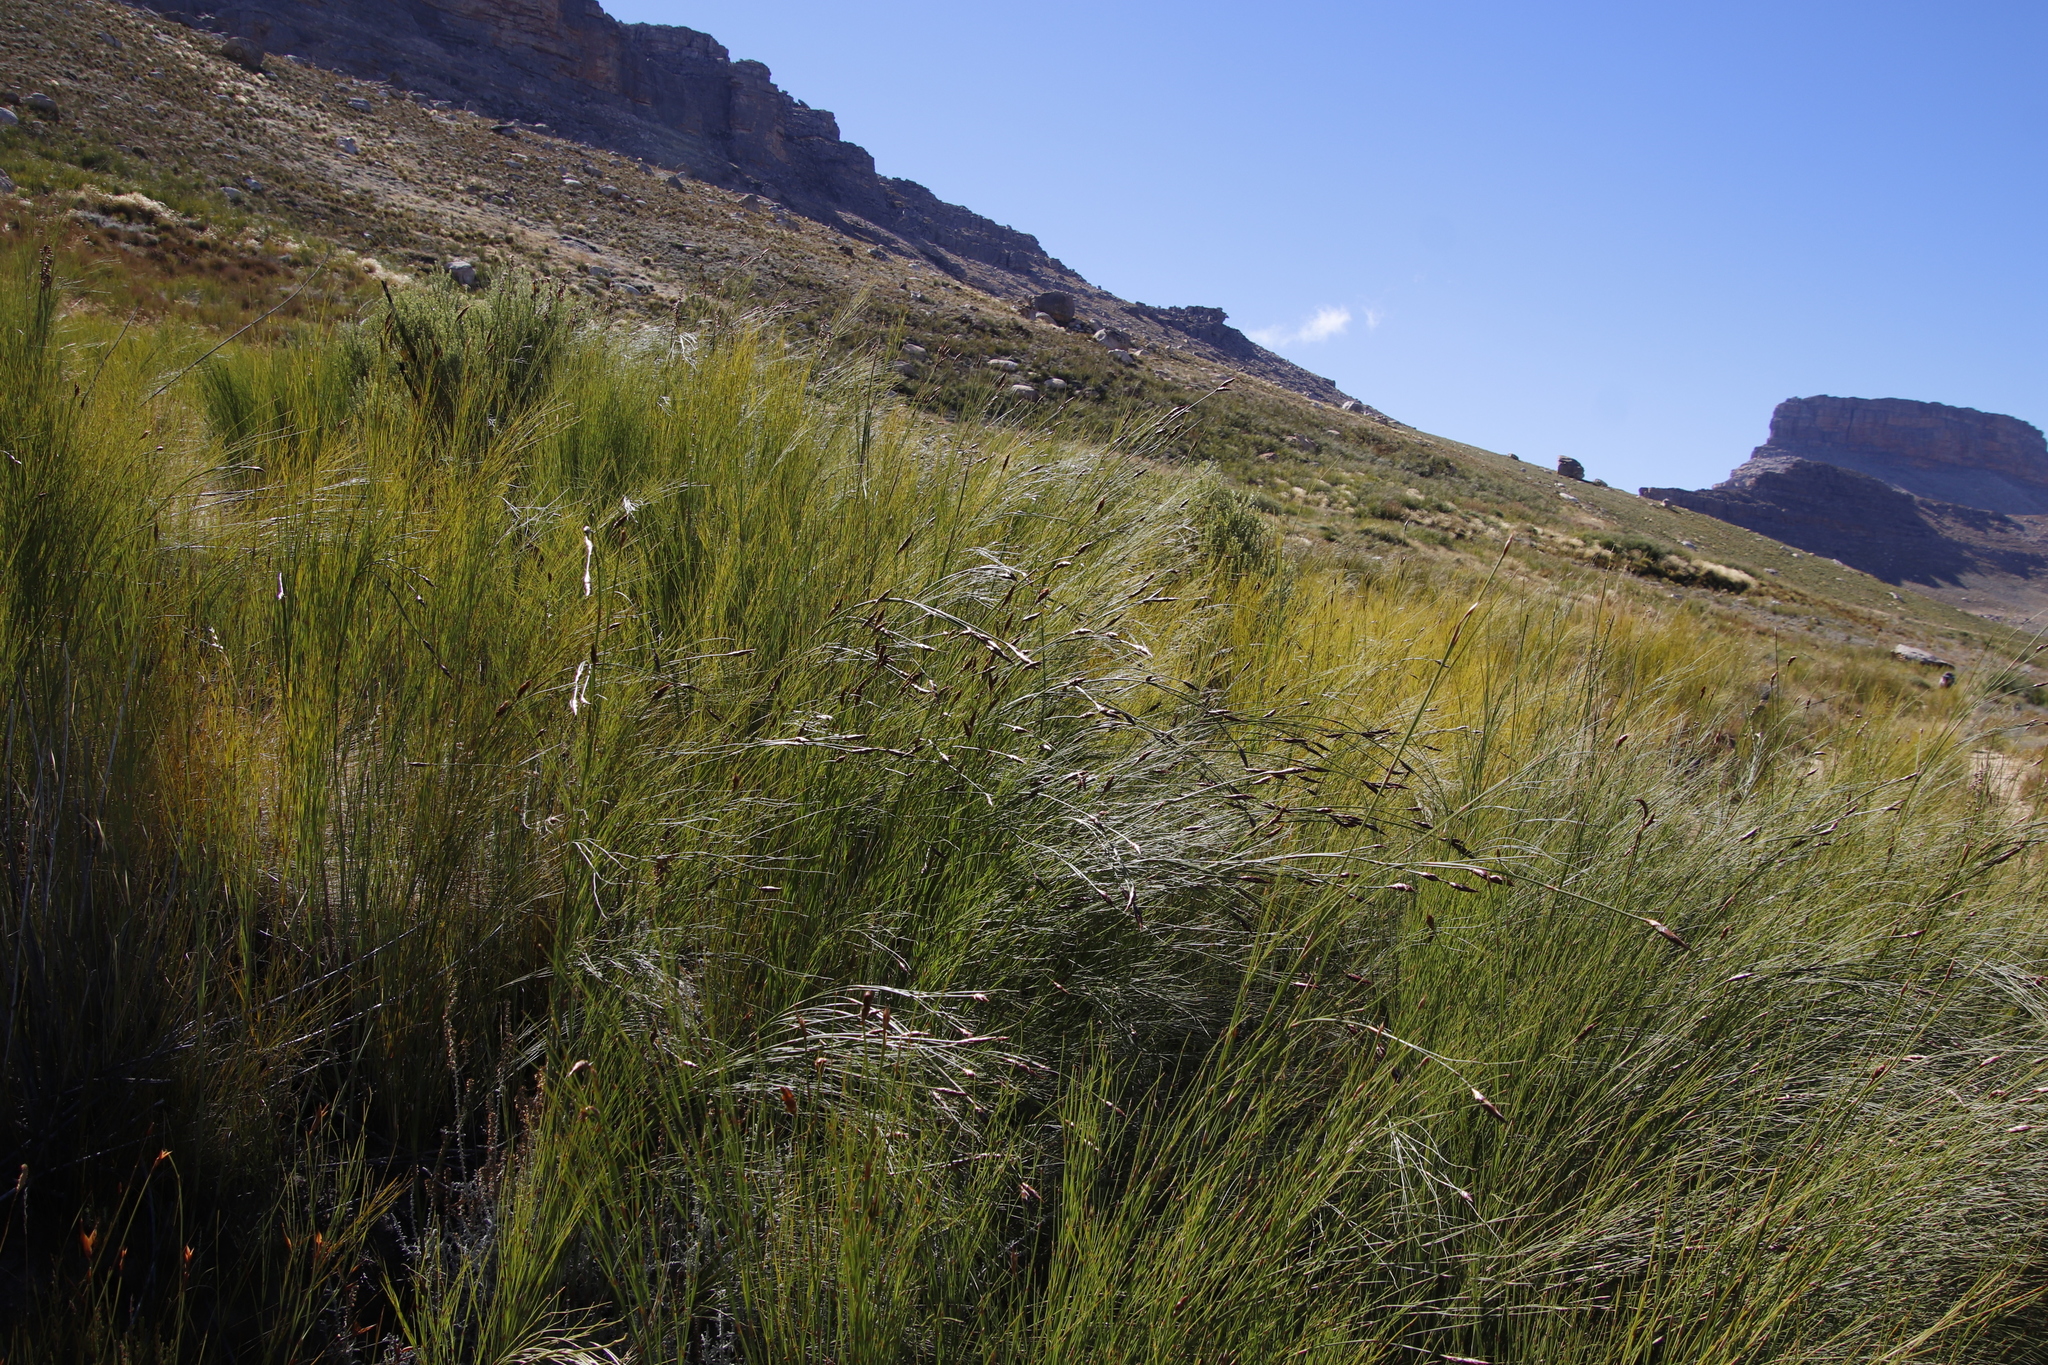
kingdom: Plantae
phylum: Tracheophyta
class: Liliopsida
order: Poales
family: Restionaceae
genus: Cannomois
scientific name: Cannomois virgata
